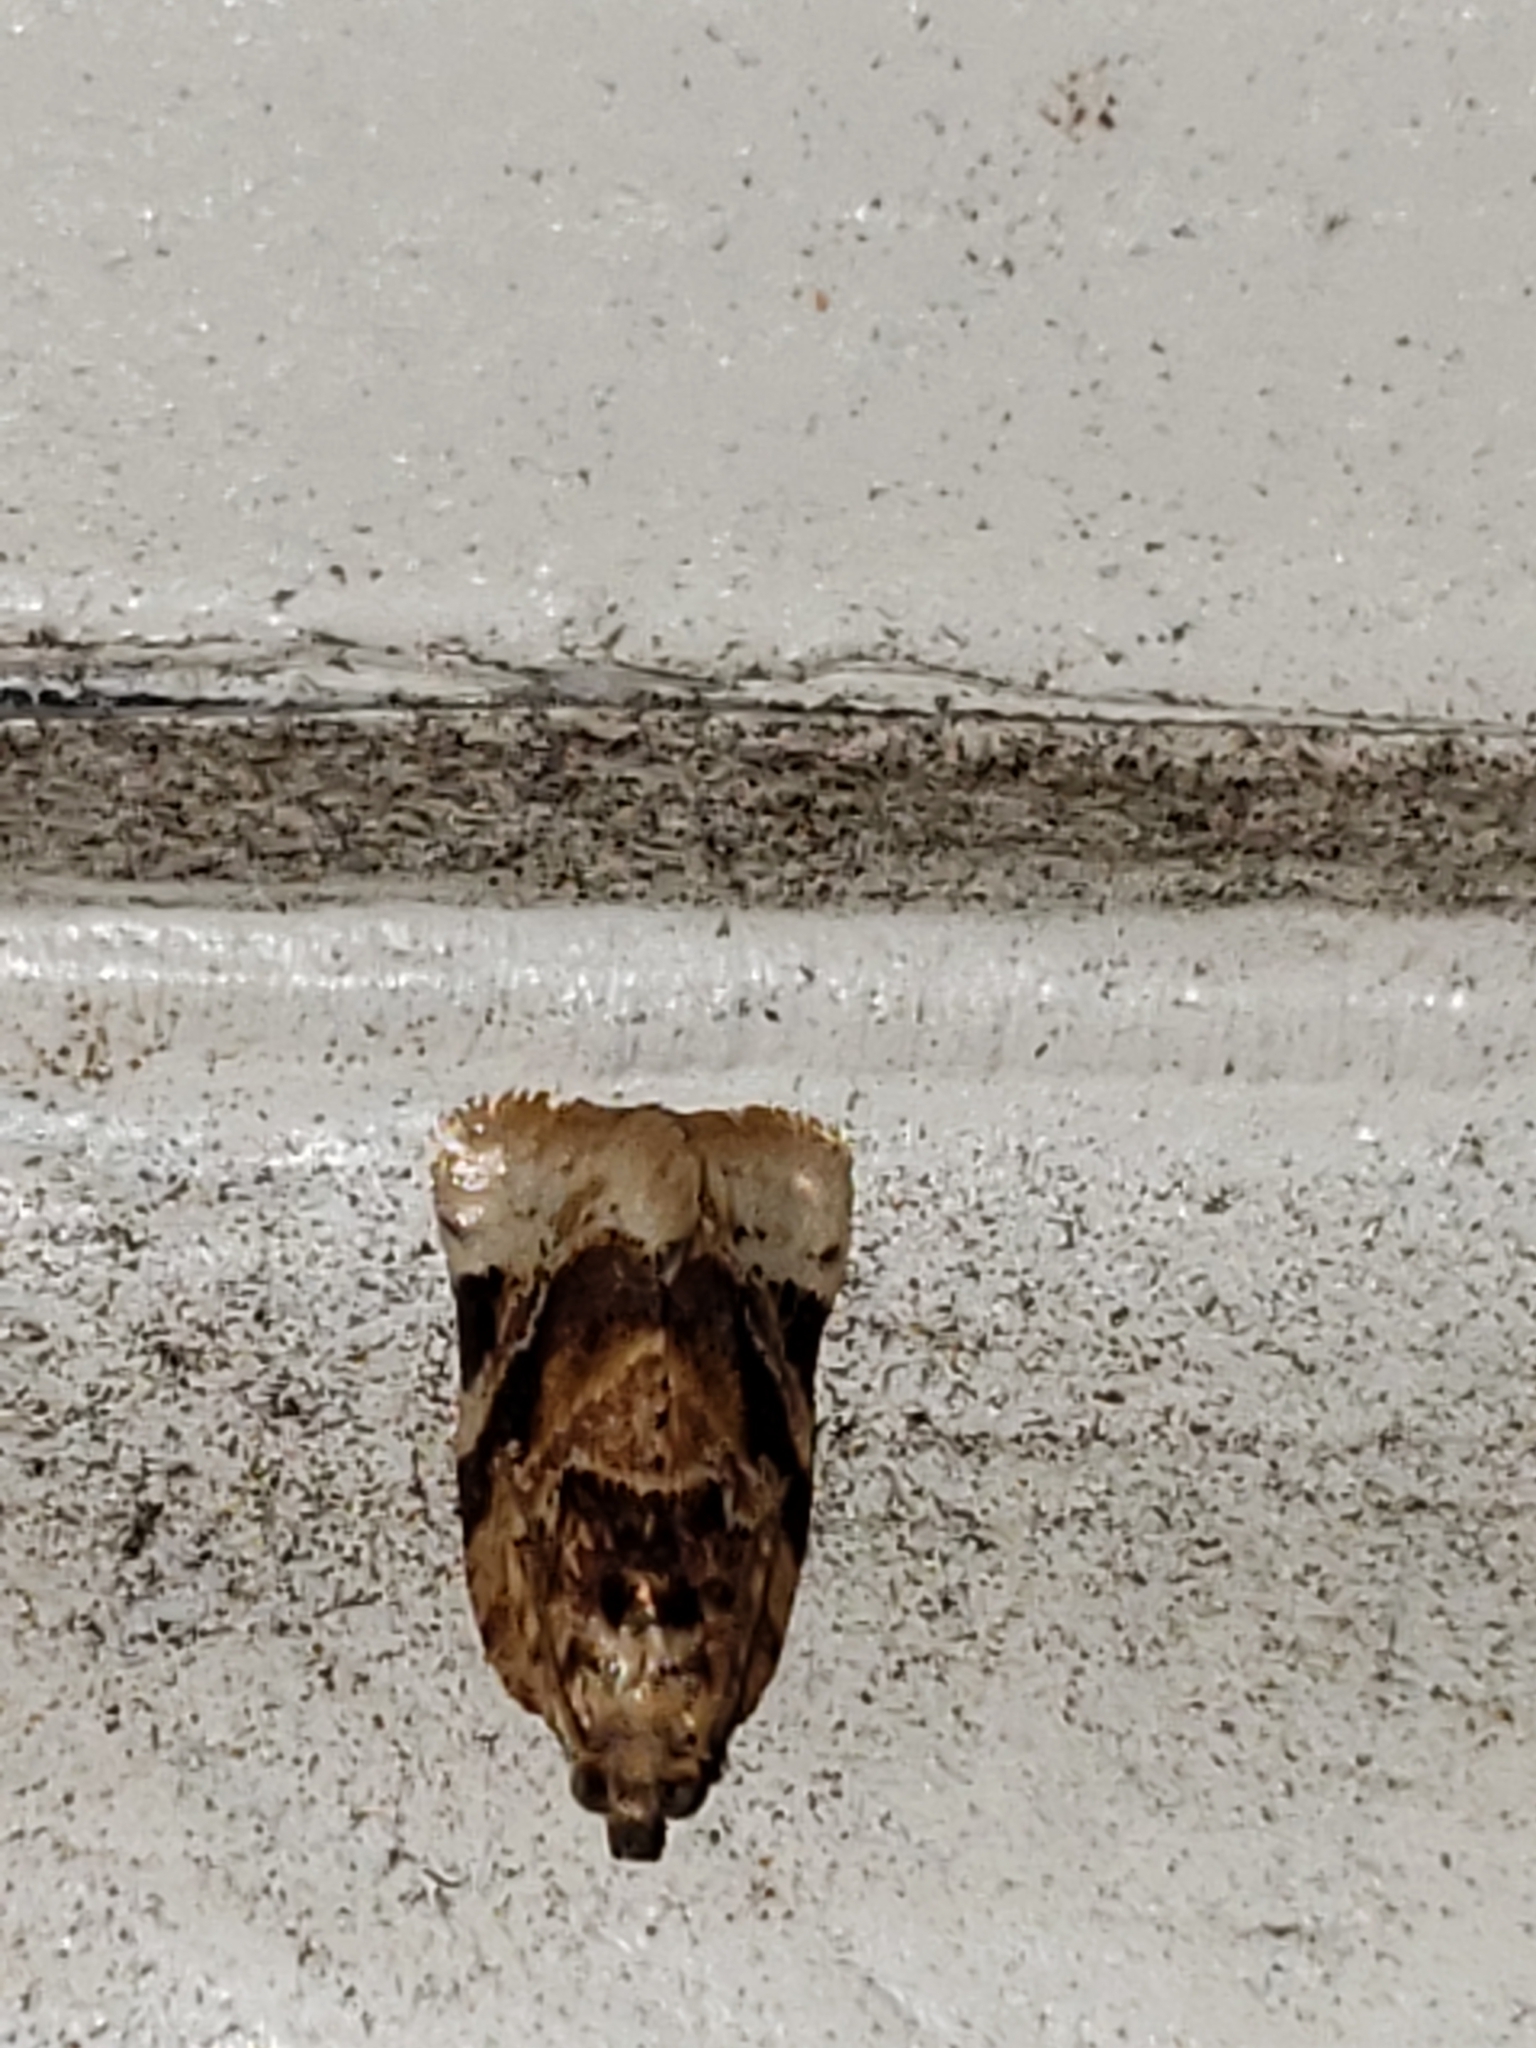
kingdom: Animalia
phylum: Arthropoda
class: Insecta
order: Lepidoptera
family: Tortricidae
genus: Argyrotaenia
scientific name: Argyrotaenia velutinana
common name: Red-banded leafroller moth
